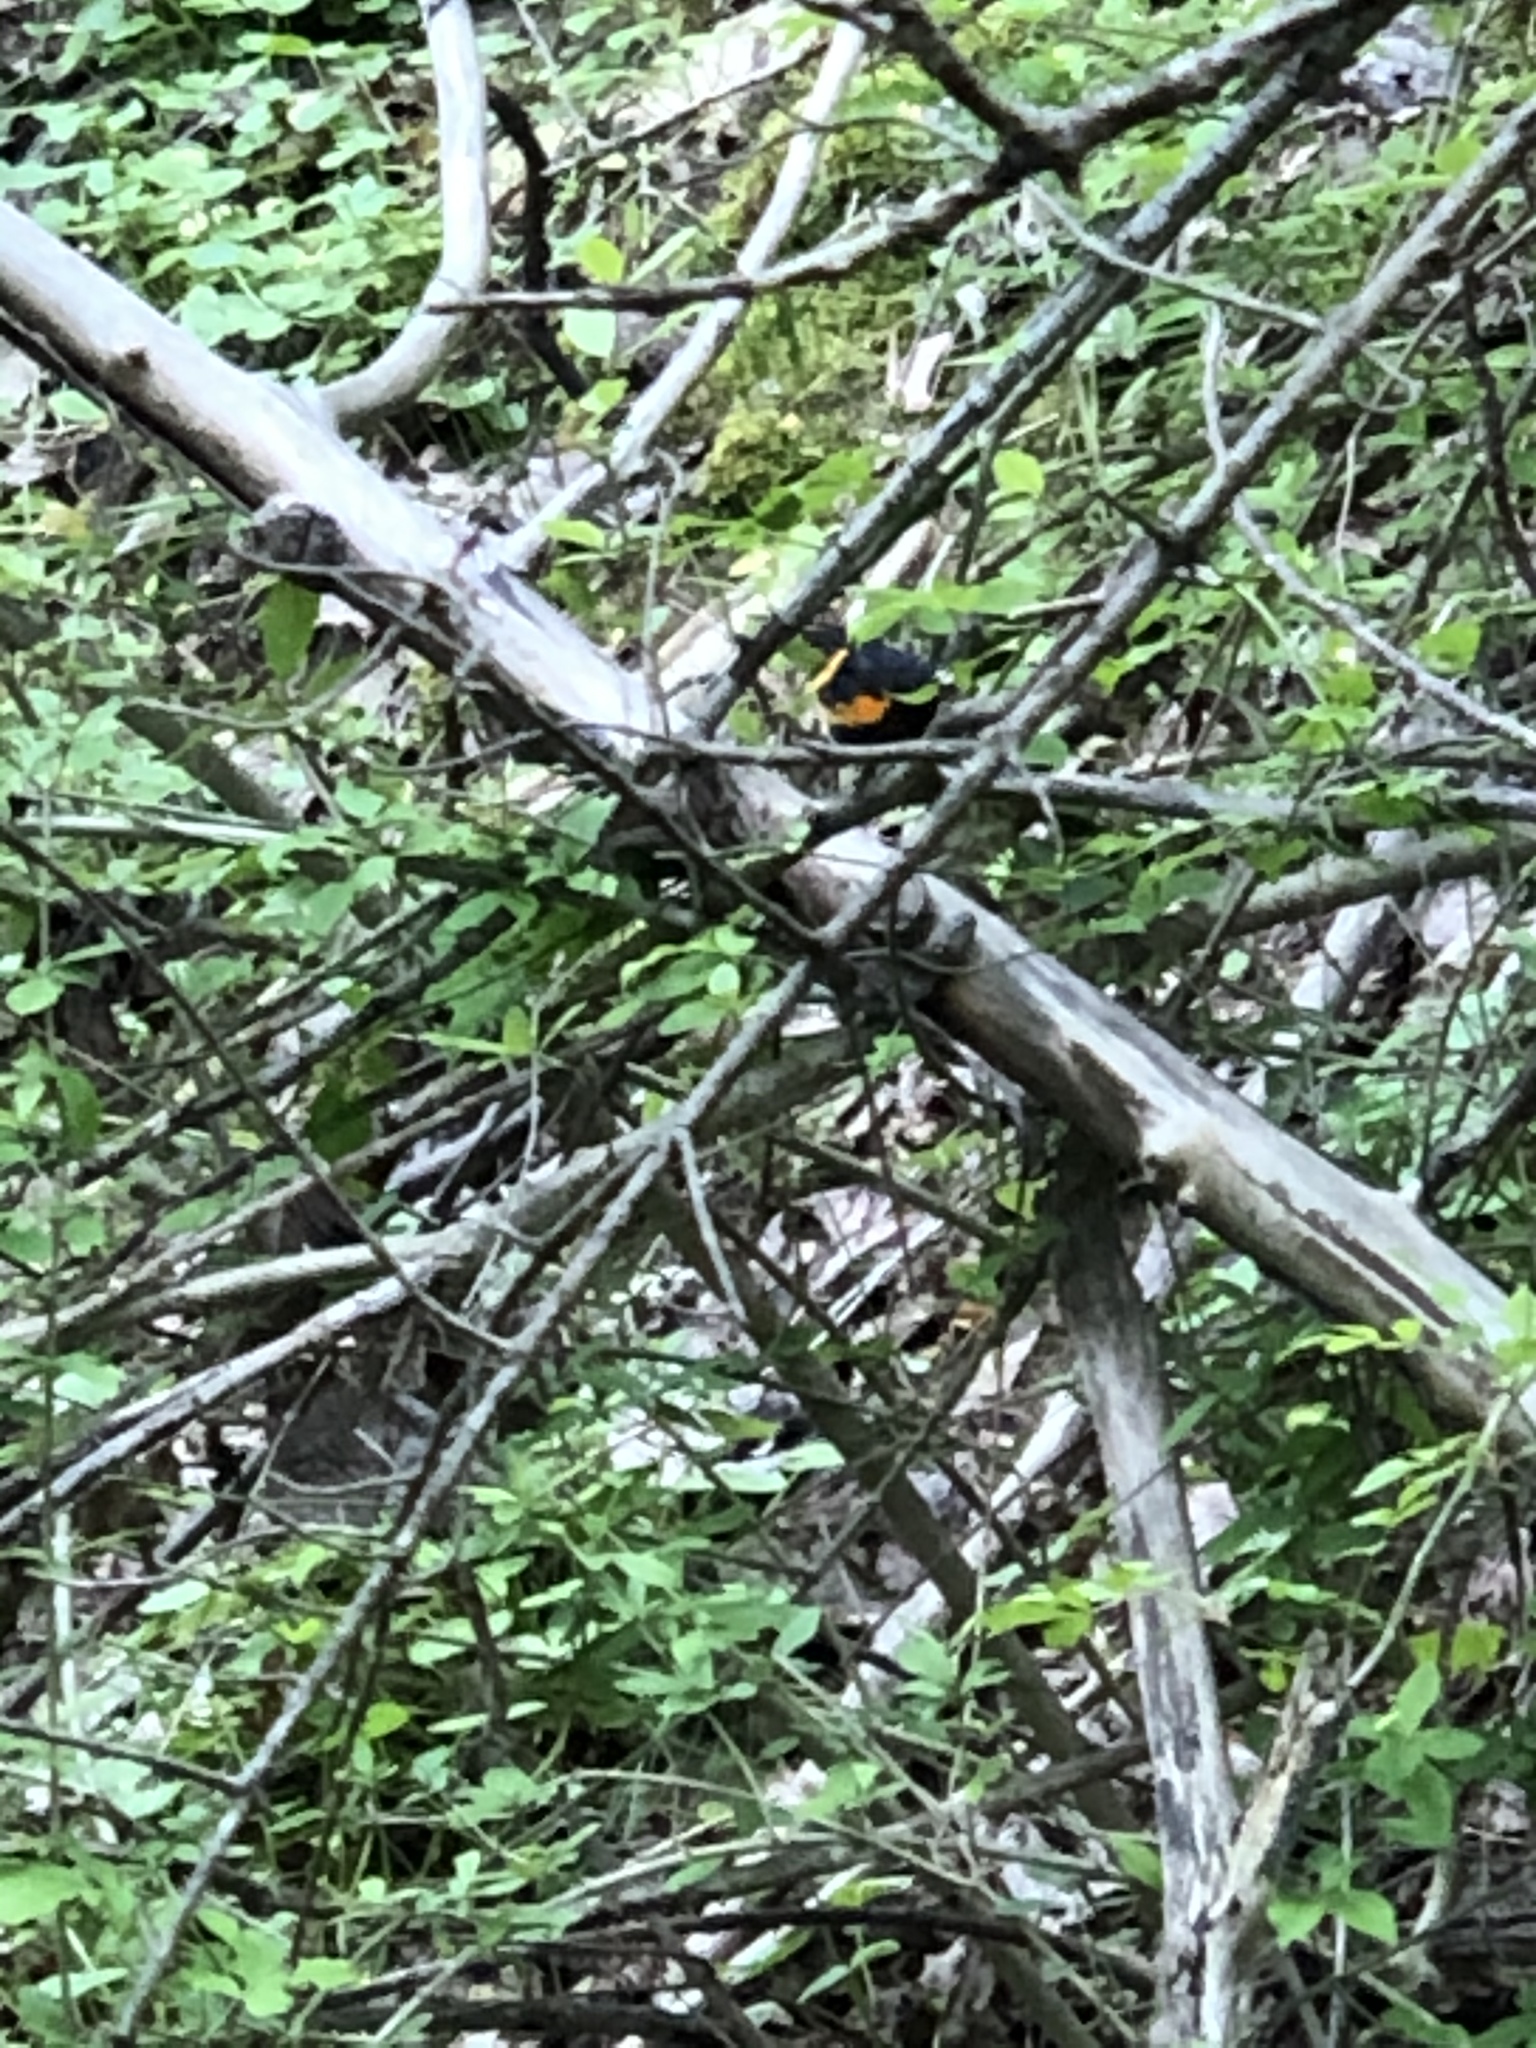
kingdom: Animalia
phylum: Chordata
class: Aves
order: Passeriformes
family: Parulidae
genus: Setophaga
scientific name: Setophaga ruticilla
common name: American redstart
